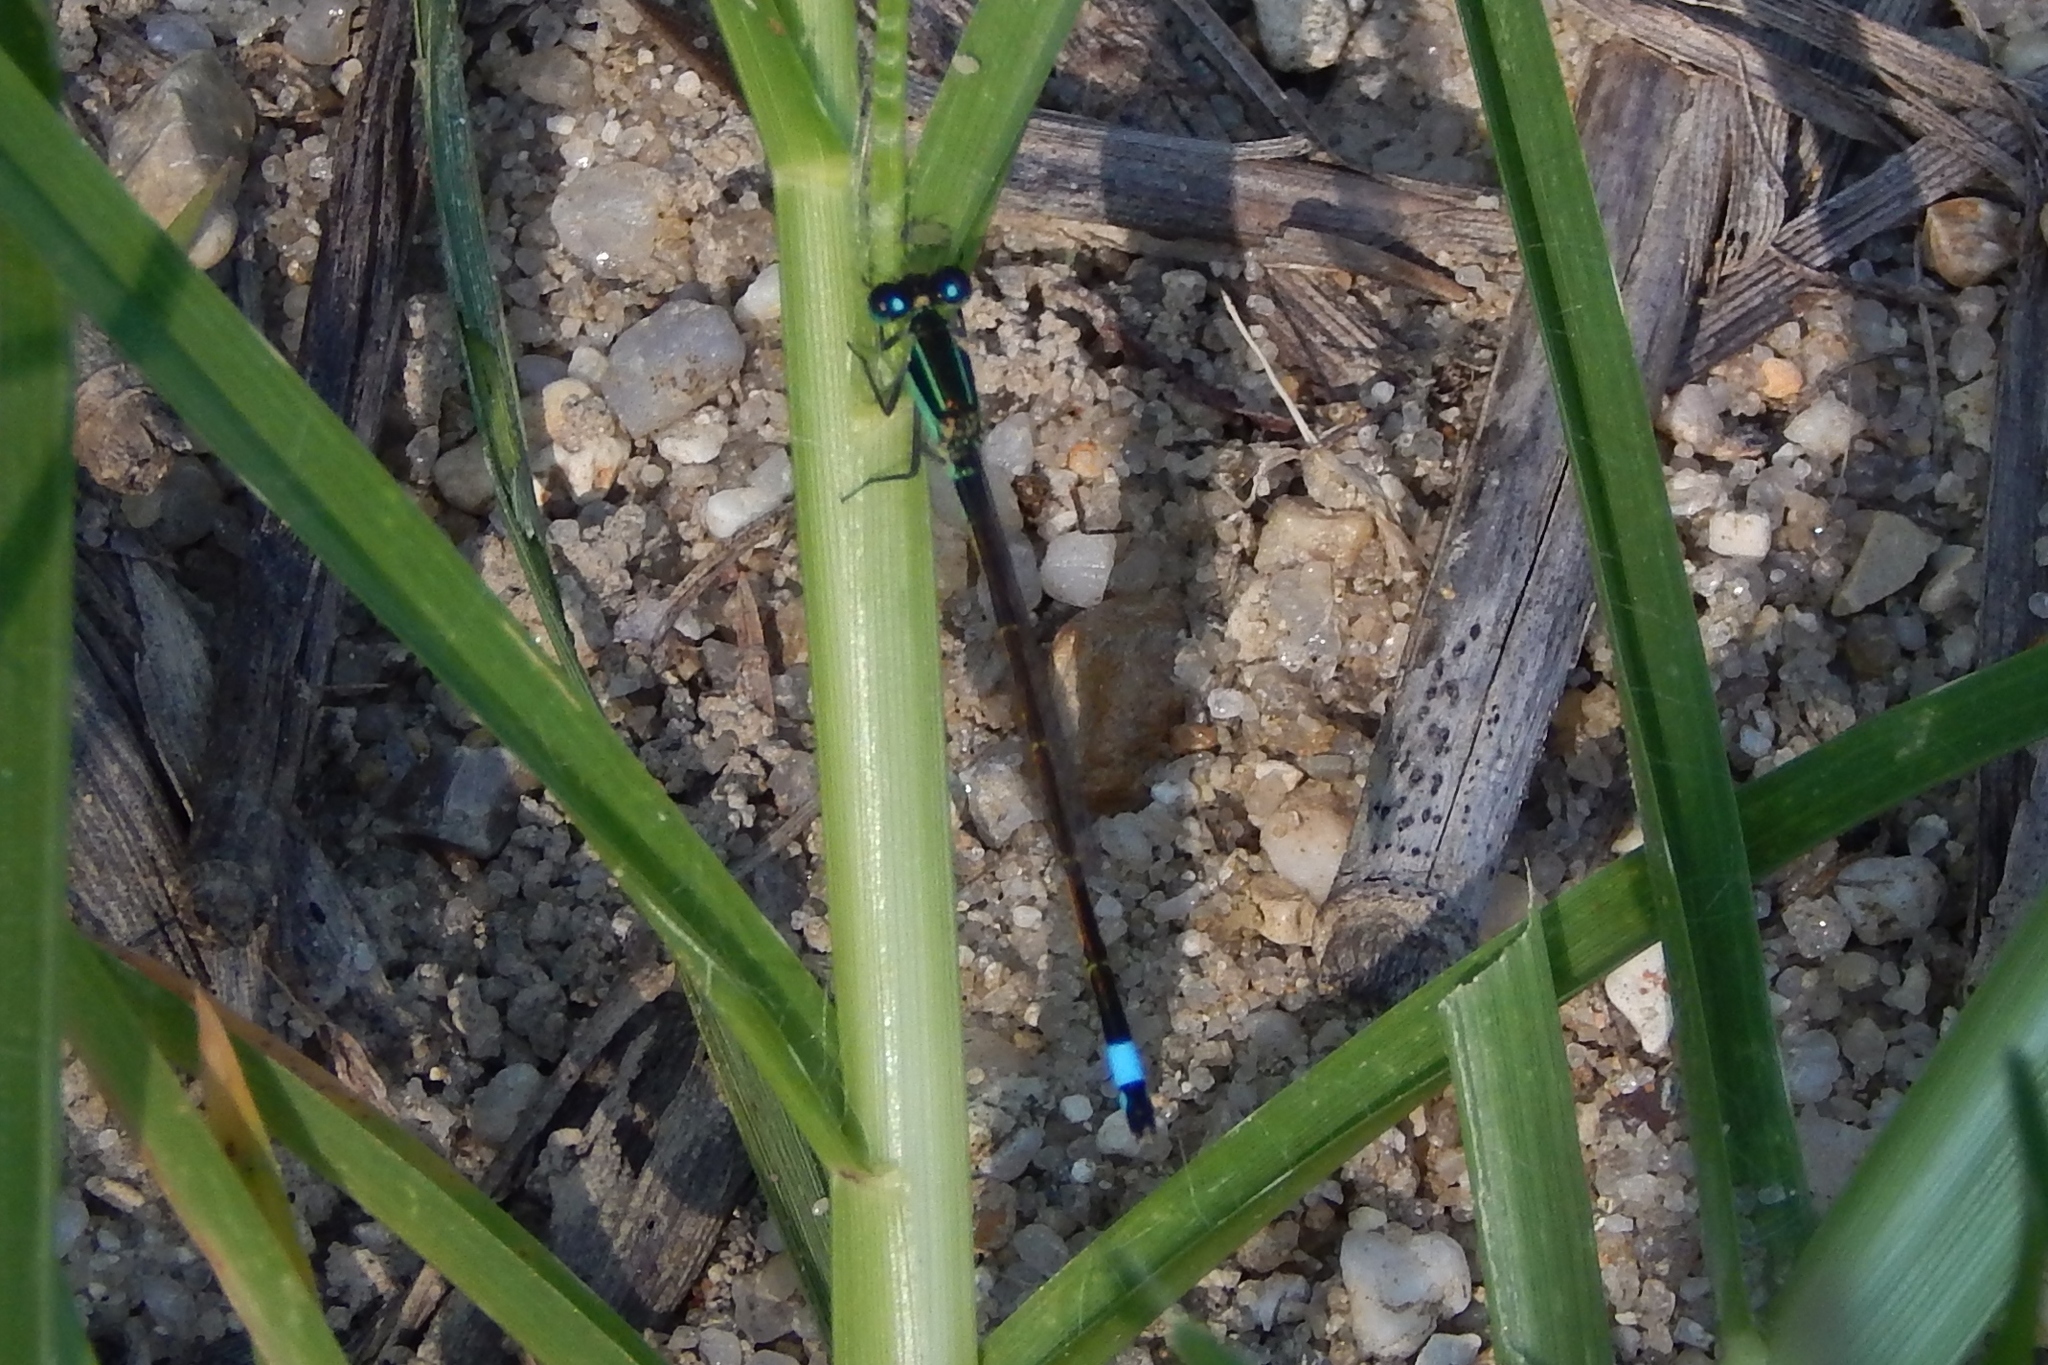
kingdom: Animalia
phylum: Arthropoda
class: Insecta
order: Odonata
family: Coenagrionidae
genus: Ischnura
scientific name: Ischnura ramburii
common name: Rambur's forktail
